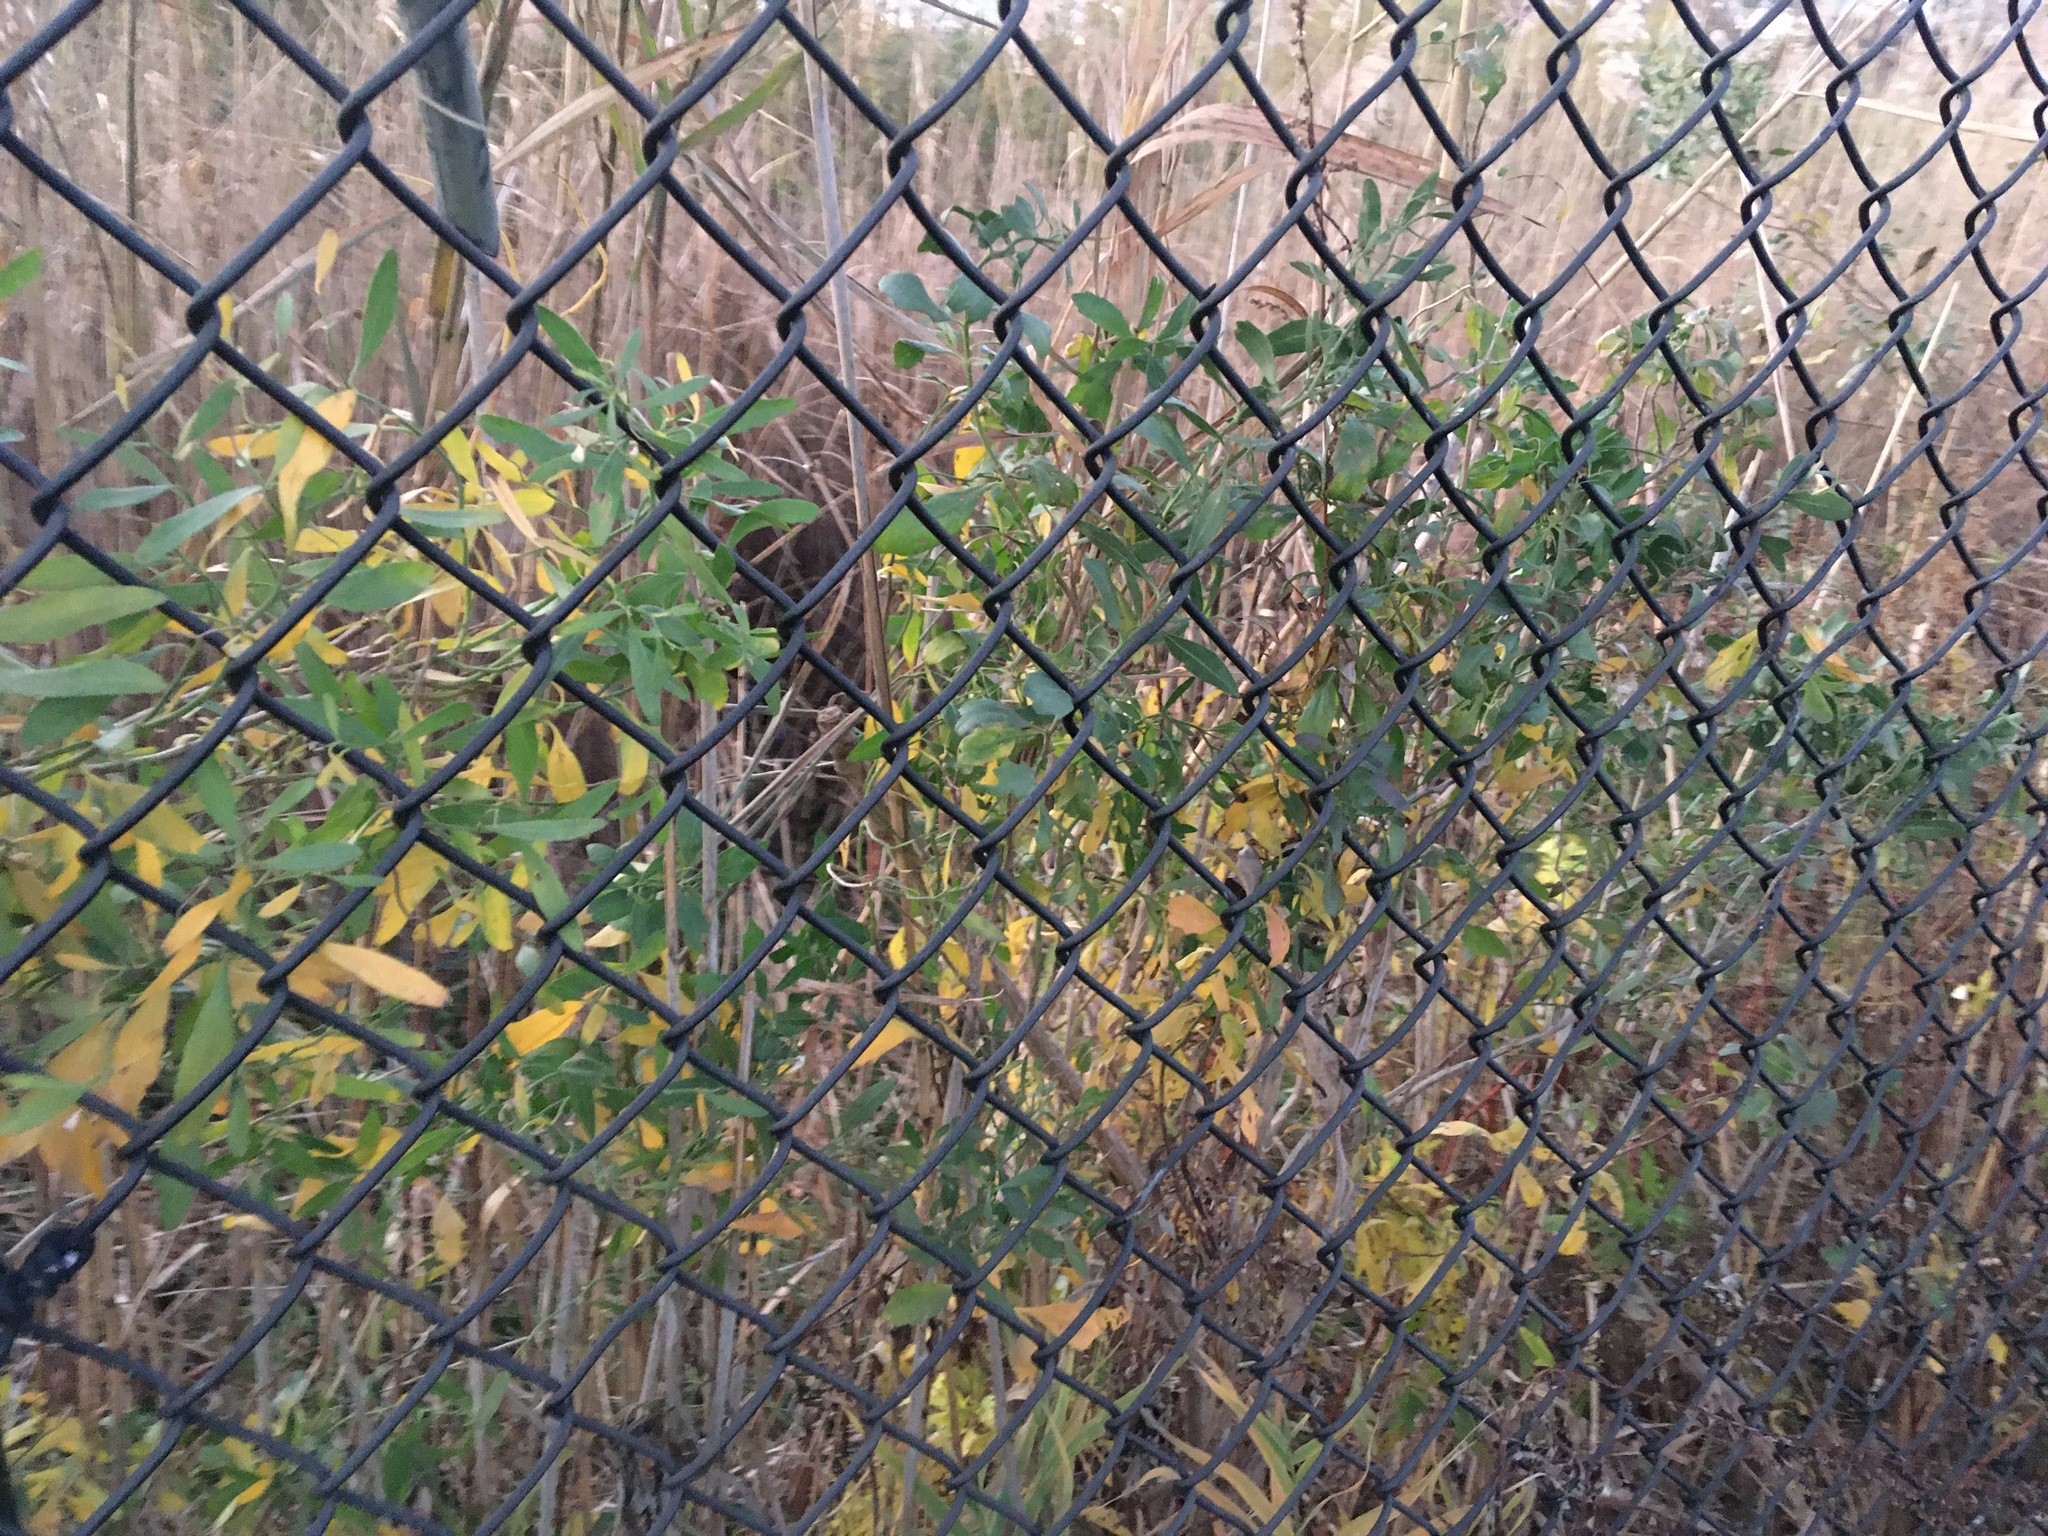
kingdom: Plantae
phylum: Tracheophyta
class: Magnoliopsida
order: Asterales
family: Asteraceae
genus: Baccharis
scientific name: Baccharis halimifolia
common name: Eastern baccharis
